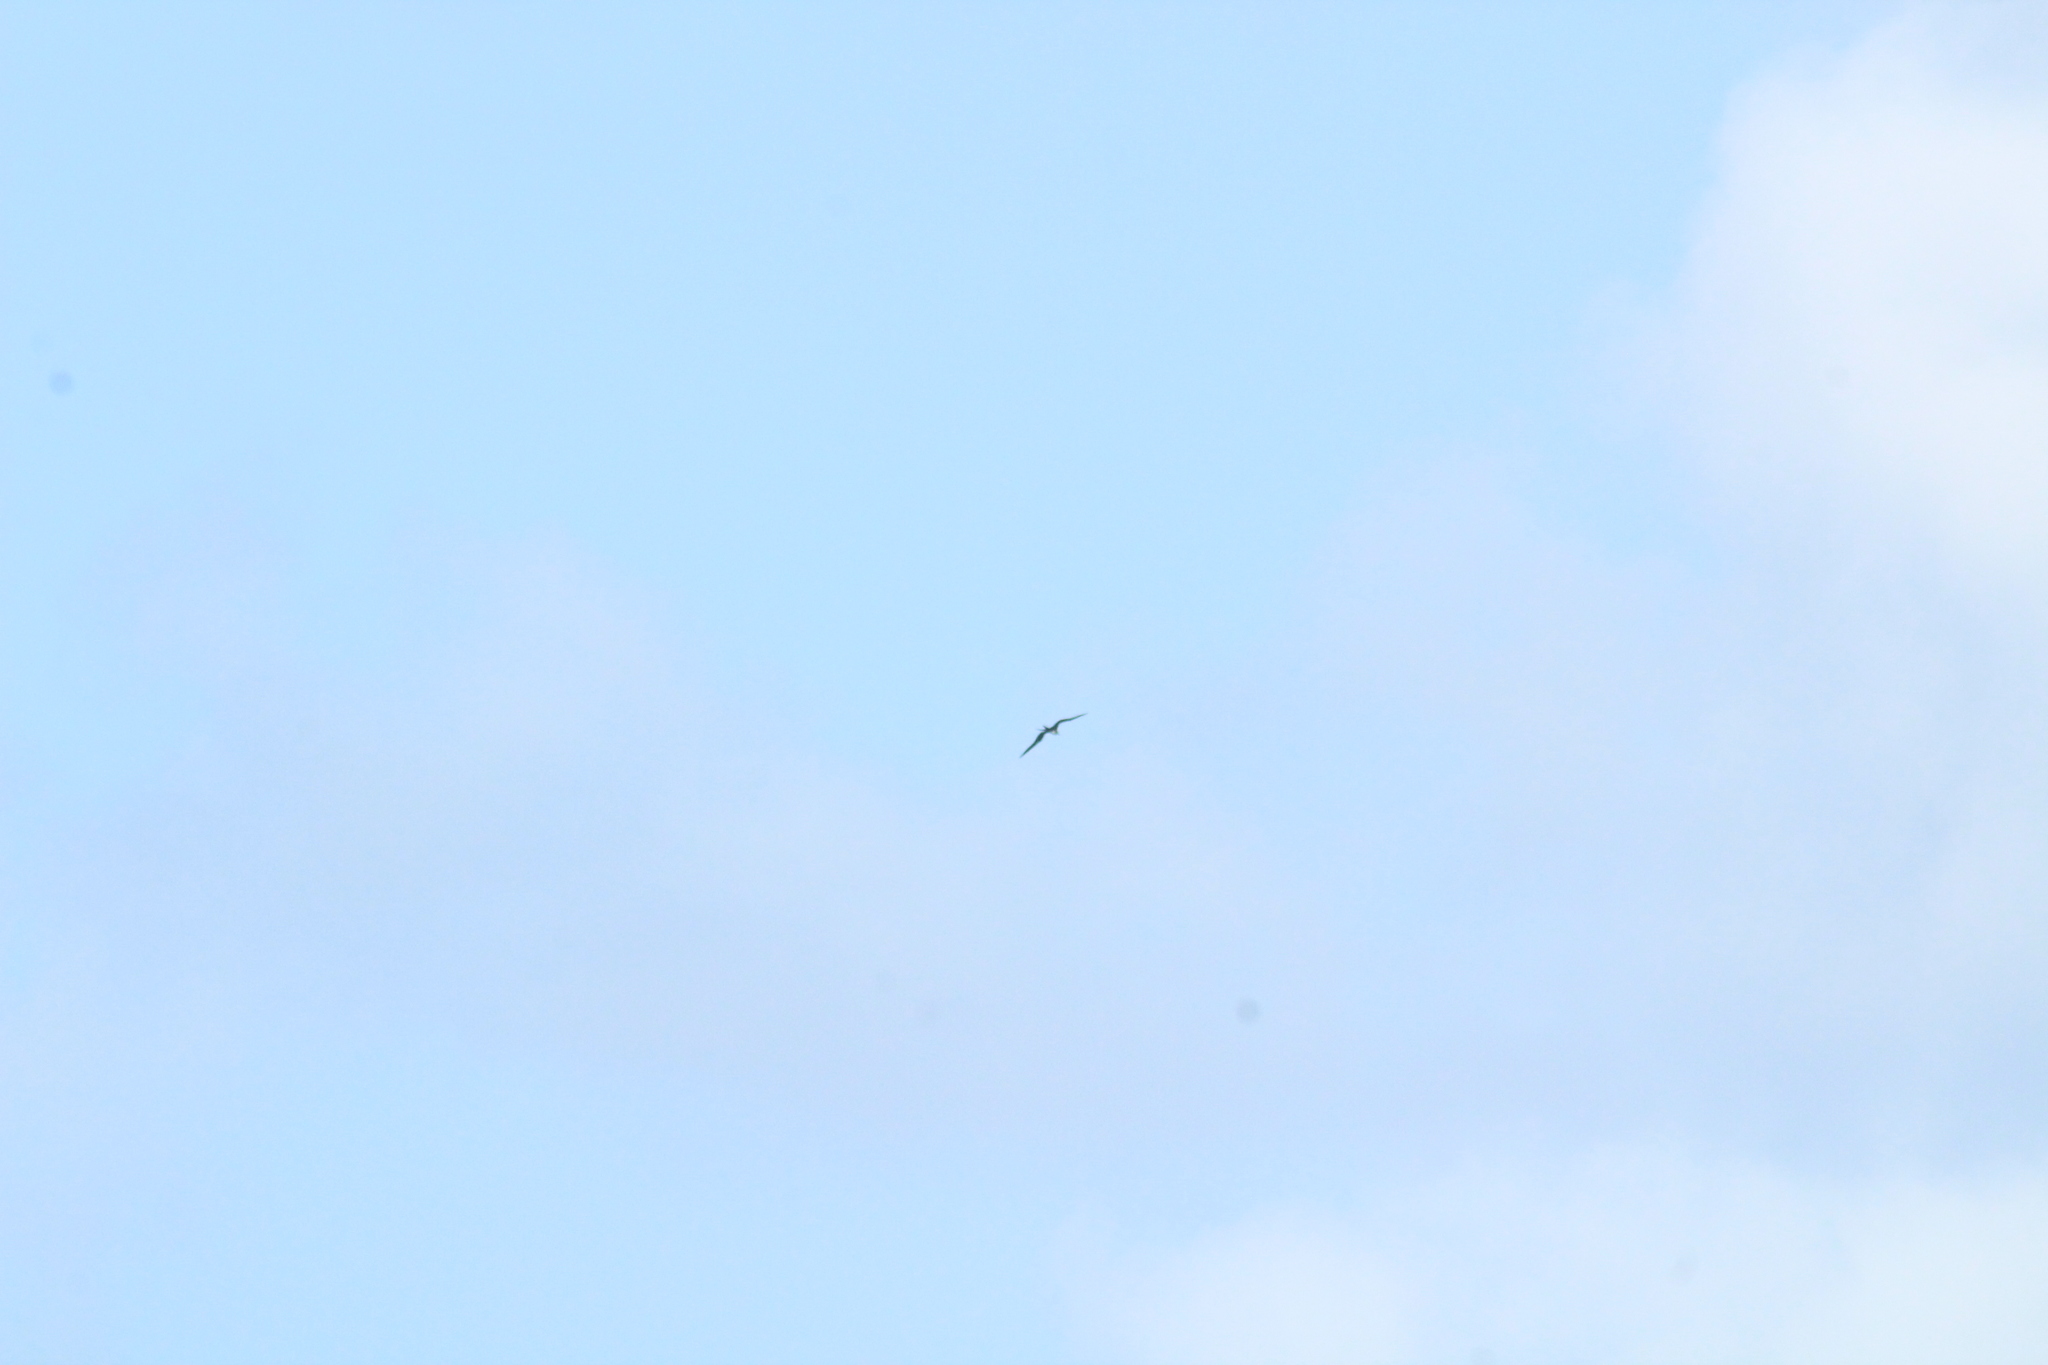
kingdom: Animalia
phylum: Chordata
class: Aves
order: Suliformes
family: Fregatidae
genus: Fregata
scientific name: Fregata magnificens
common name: Magnificent frigatebird
